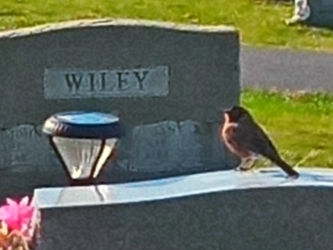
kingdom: Animalia
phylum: Chordata
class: Aves
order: Passeriformes
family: Turdidae
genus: Turdus
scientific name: Turdus migratorius
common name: American robin
